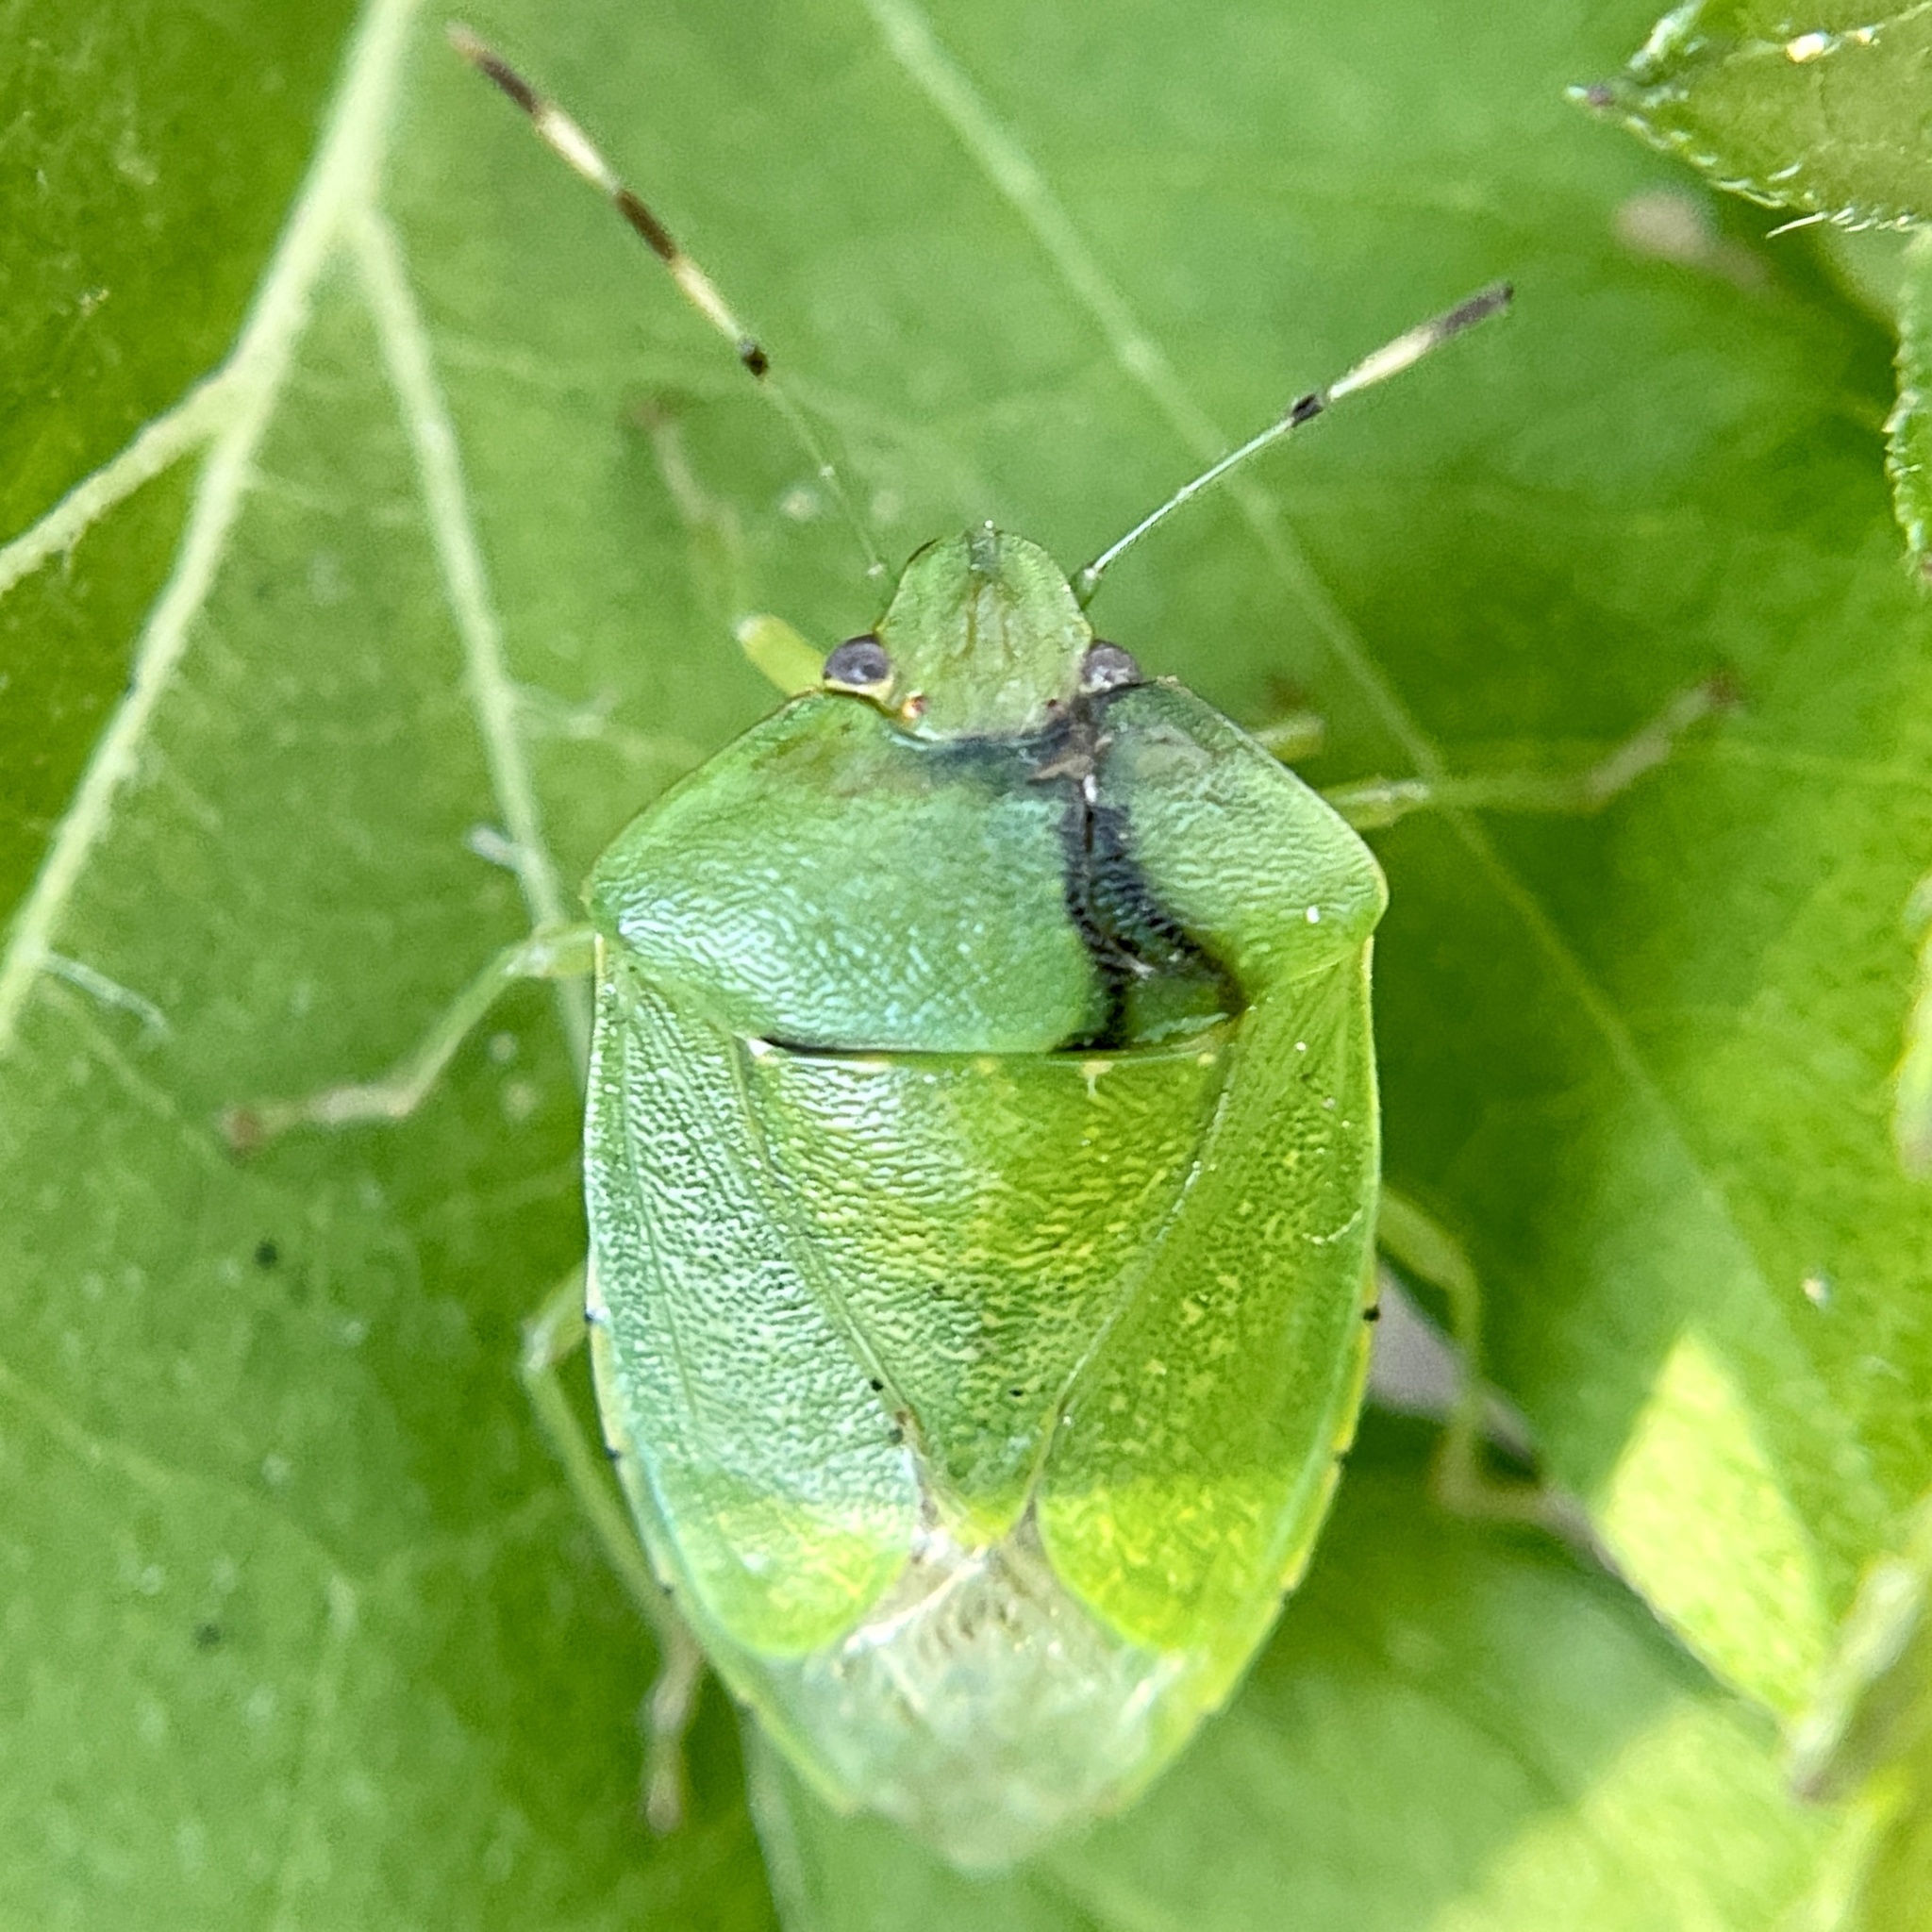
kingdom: Animalia
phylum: Arthropoda
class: Insecta
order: Hemiptera
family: Pentatomidae
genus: Chinavia
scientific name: Chinavia hilaris
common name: Green stink bug
